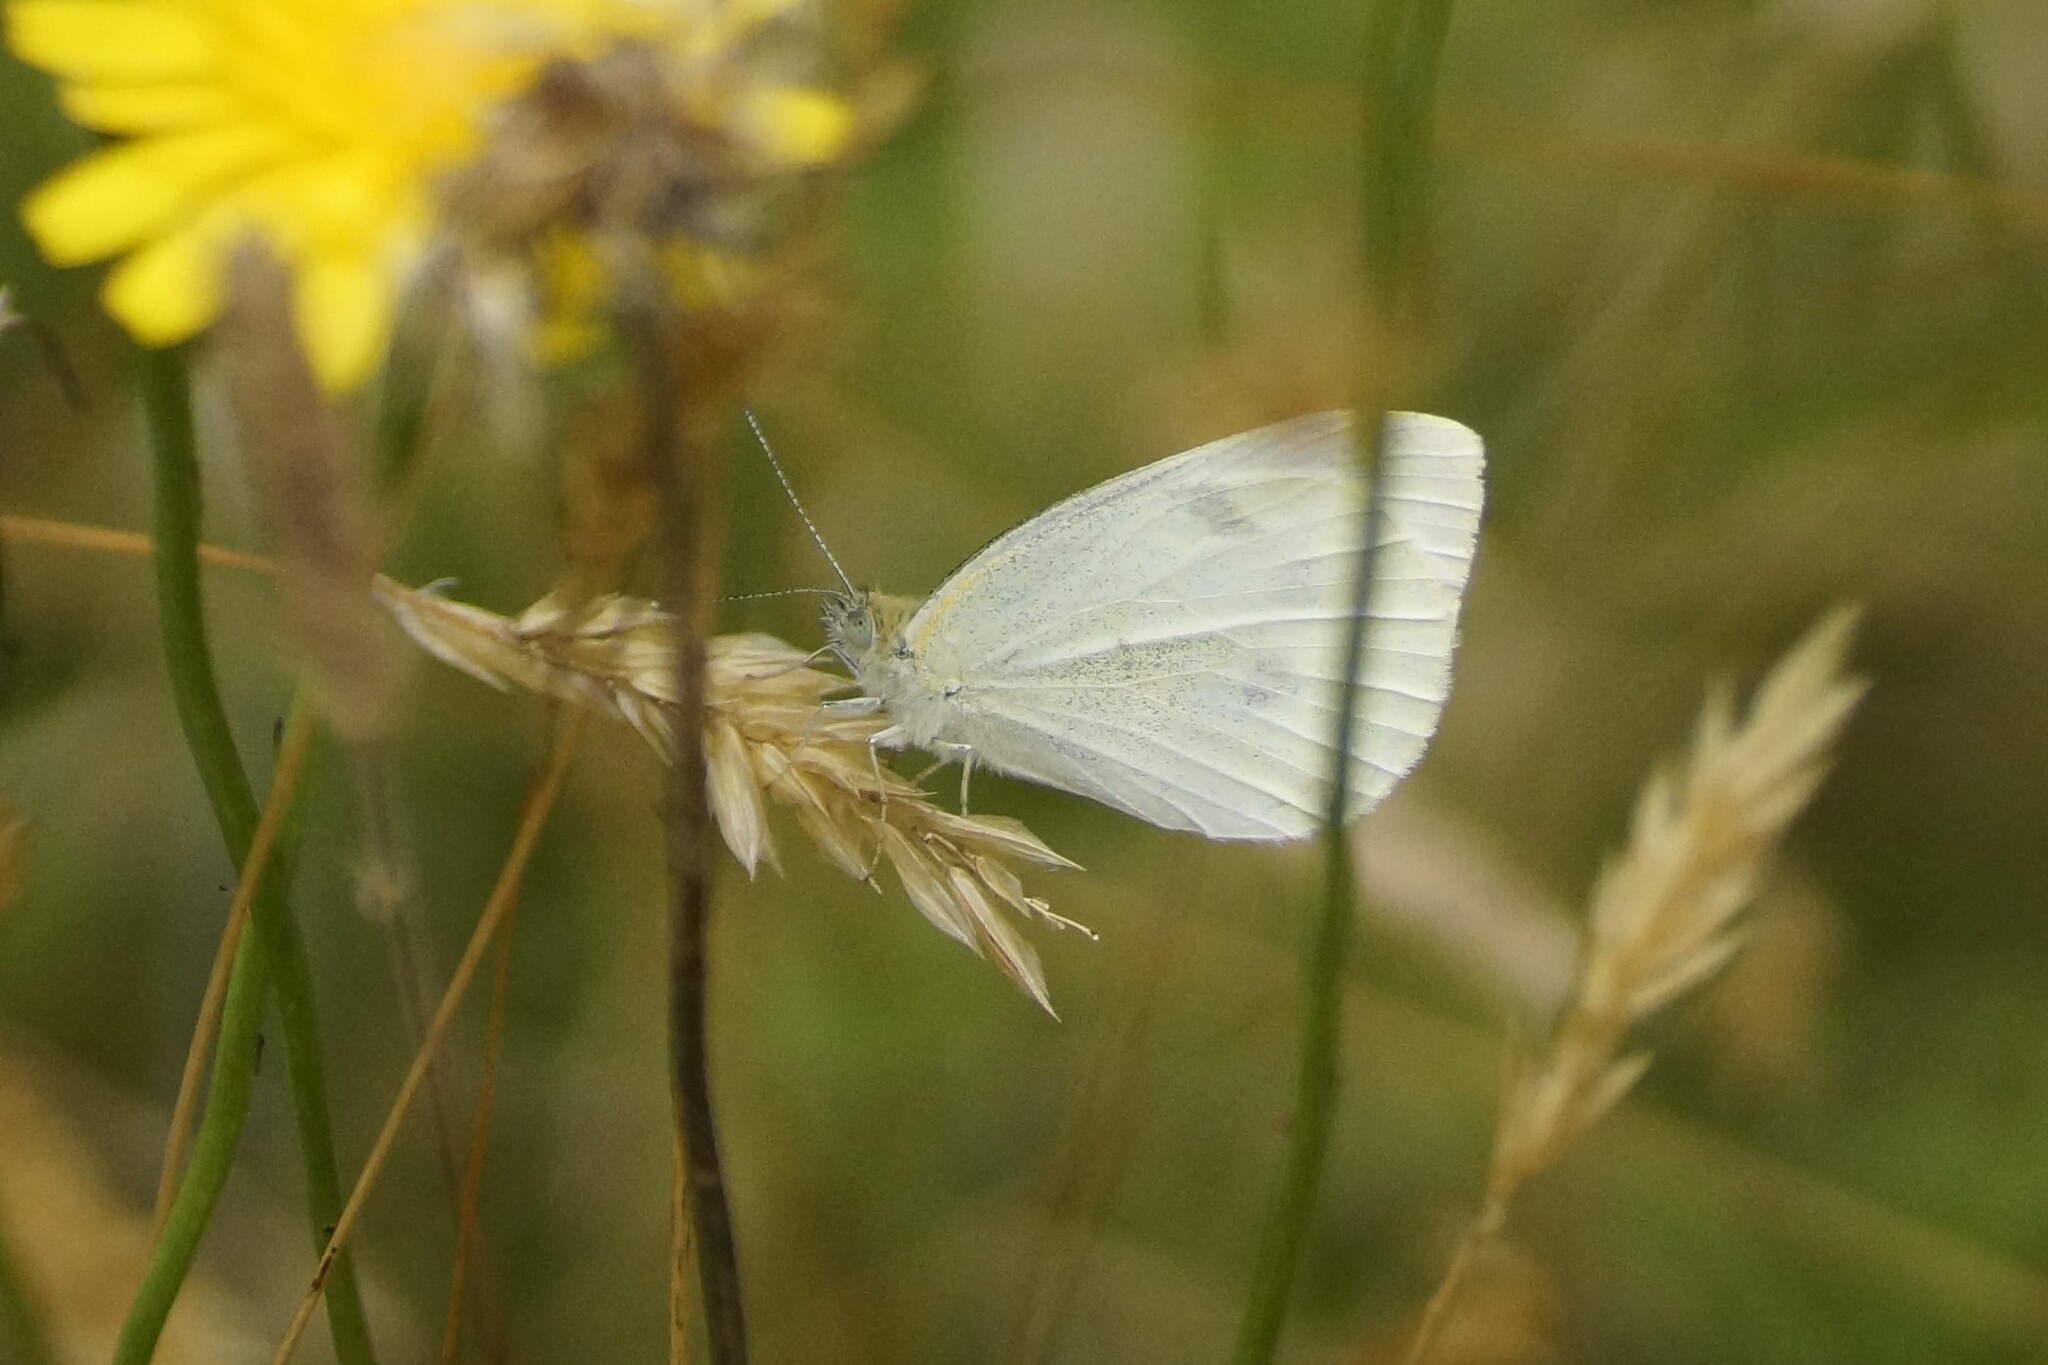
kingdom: Animalia
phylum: Arthropoda
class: Insecta
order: Lepidoptera
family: Pieridae
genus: Pieris
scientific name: Pieris rapae
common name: Small white
